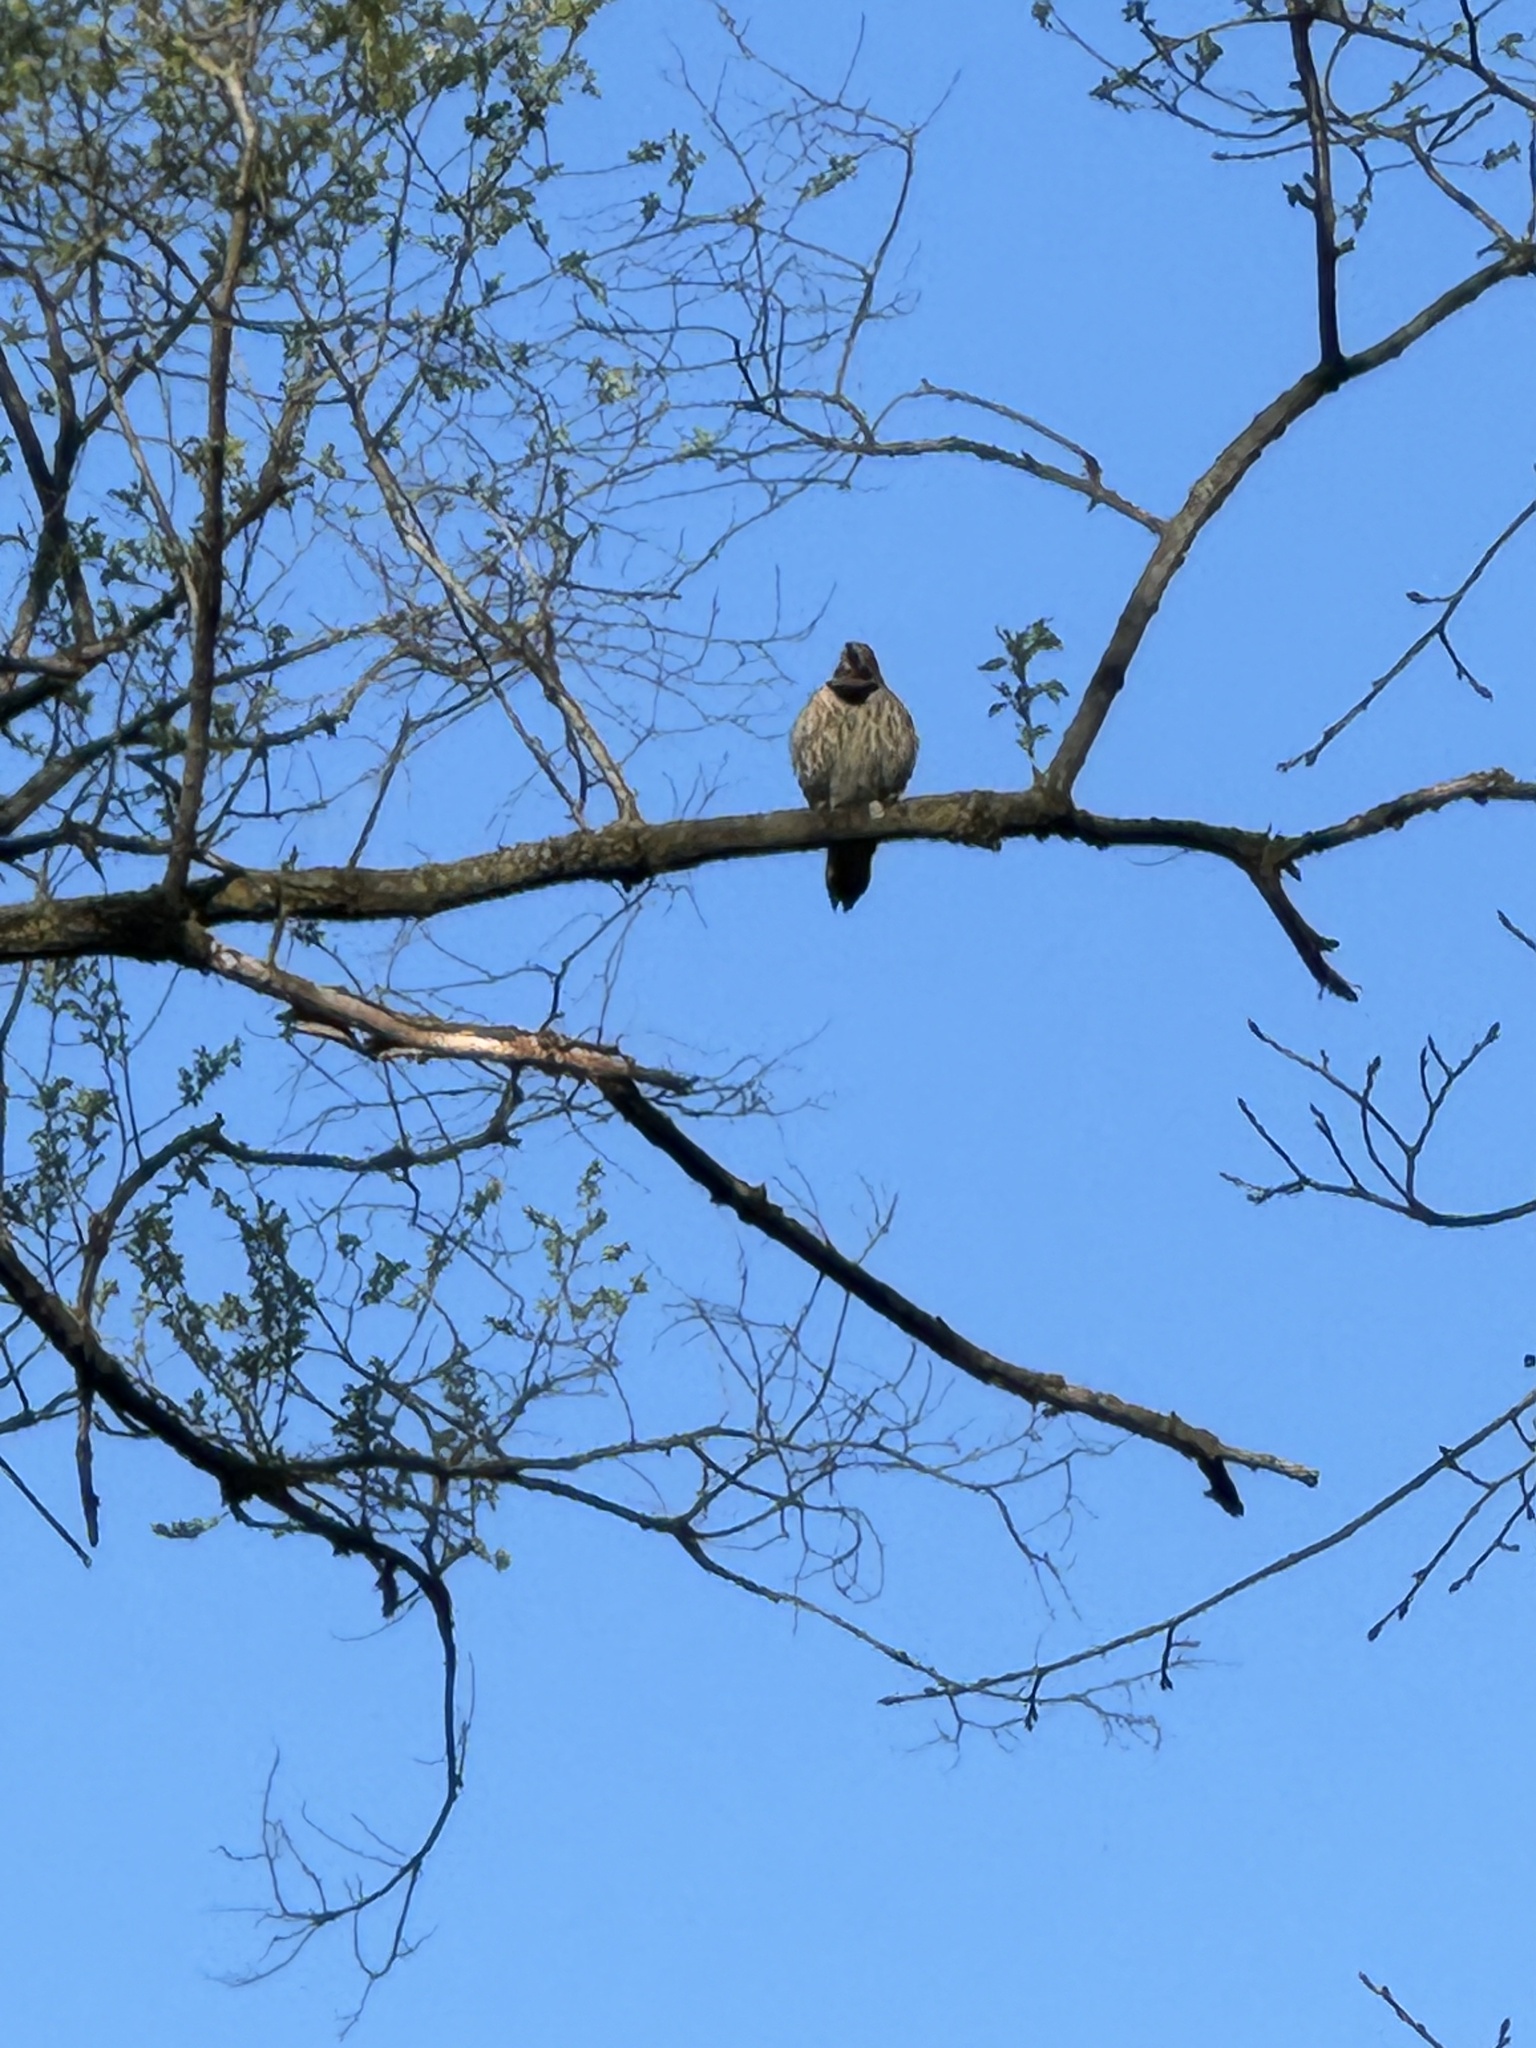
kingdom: Animalia
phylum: Chordata
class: Aves
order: Piciformes
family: Picidae
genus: Colaptes
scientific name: Colaptes auratus
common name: Northern flicker
